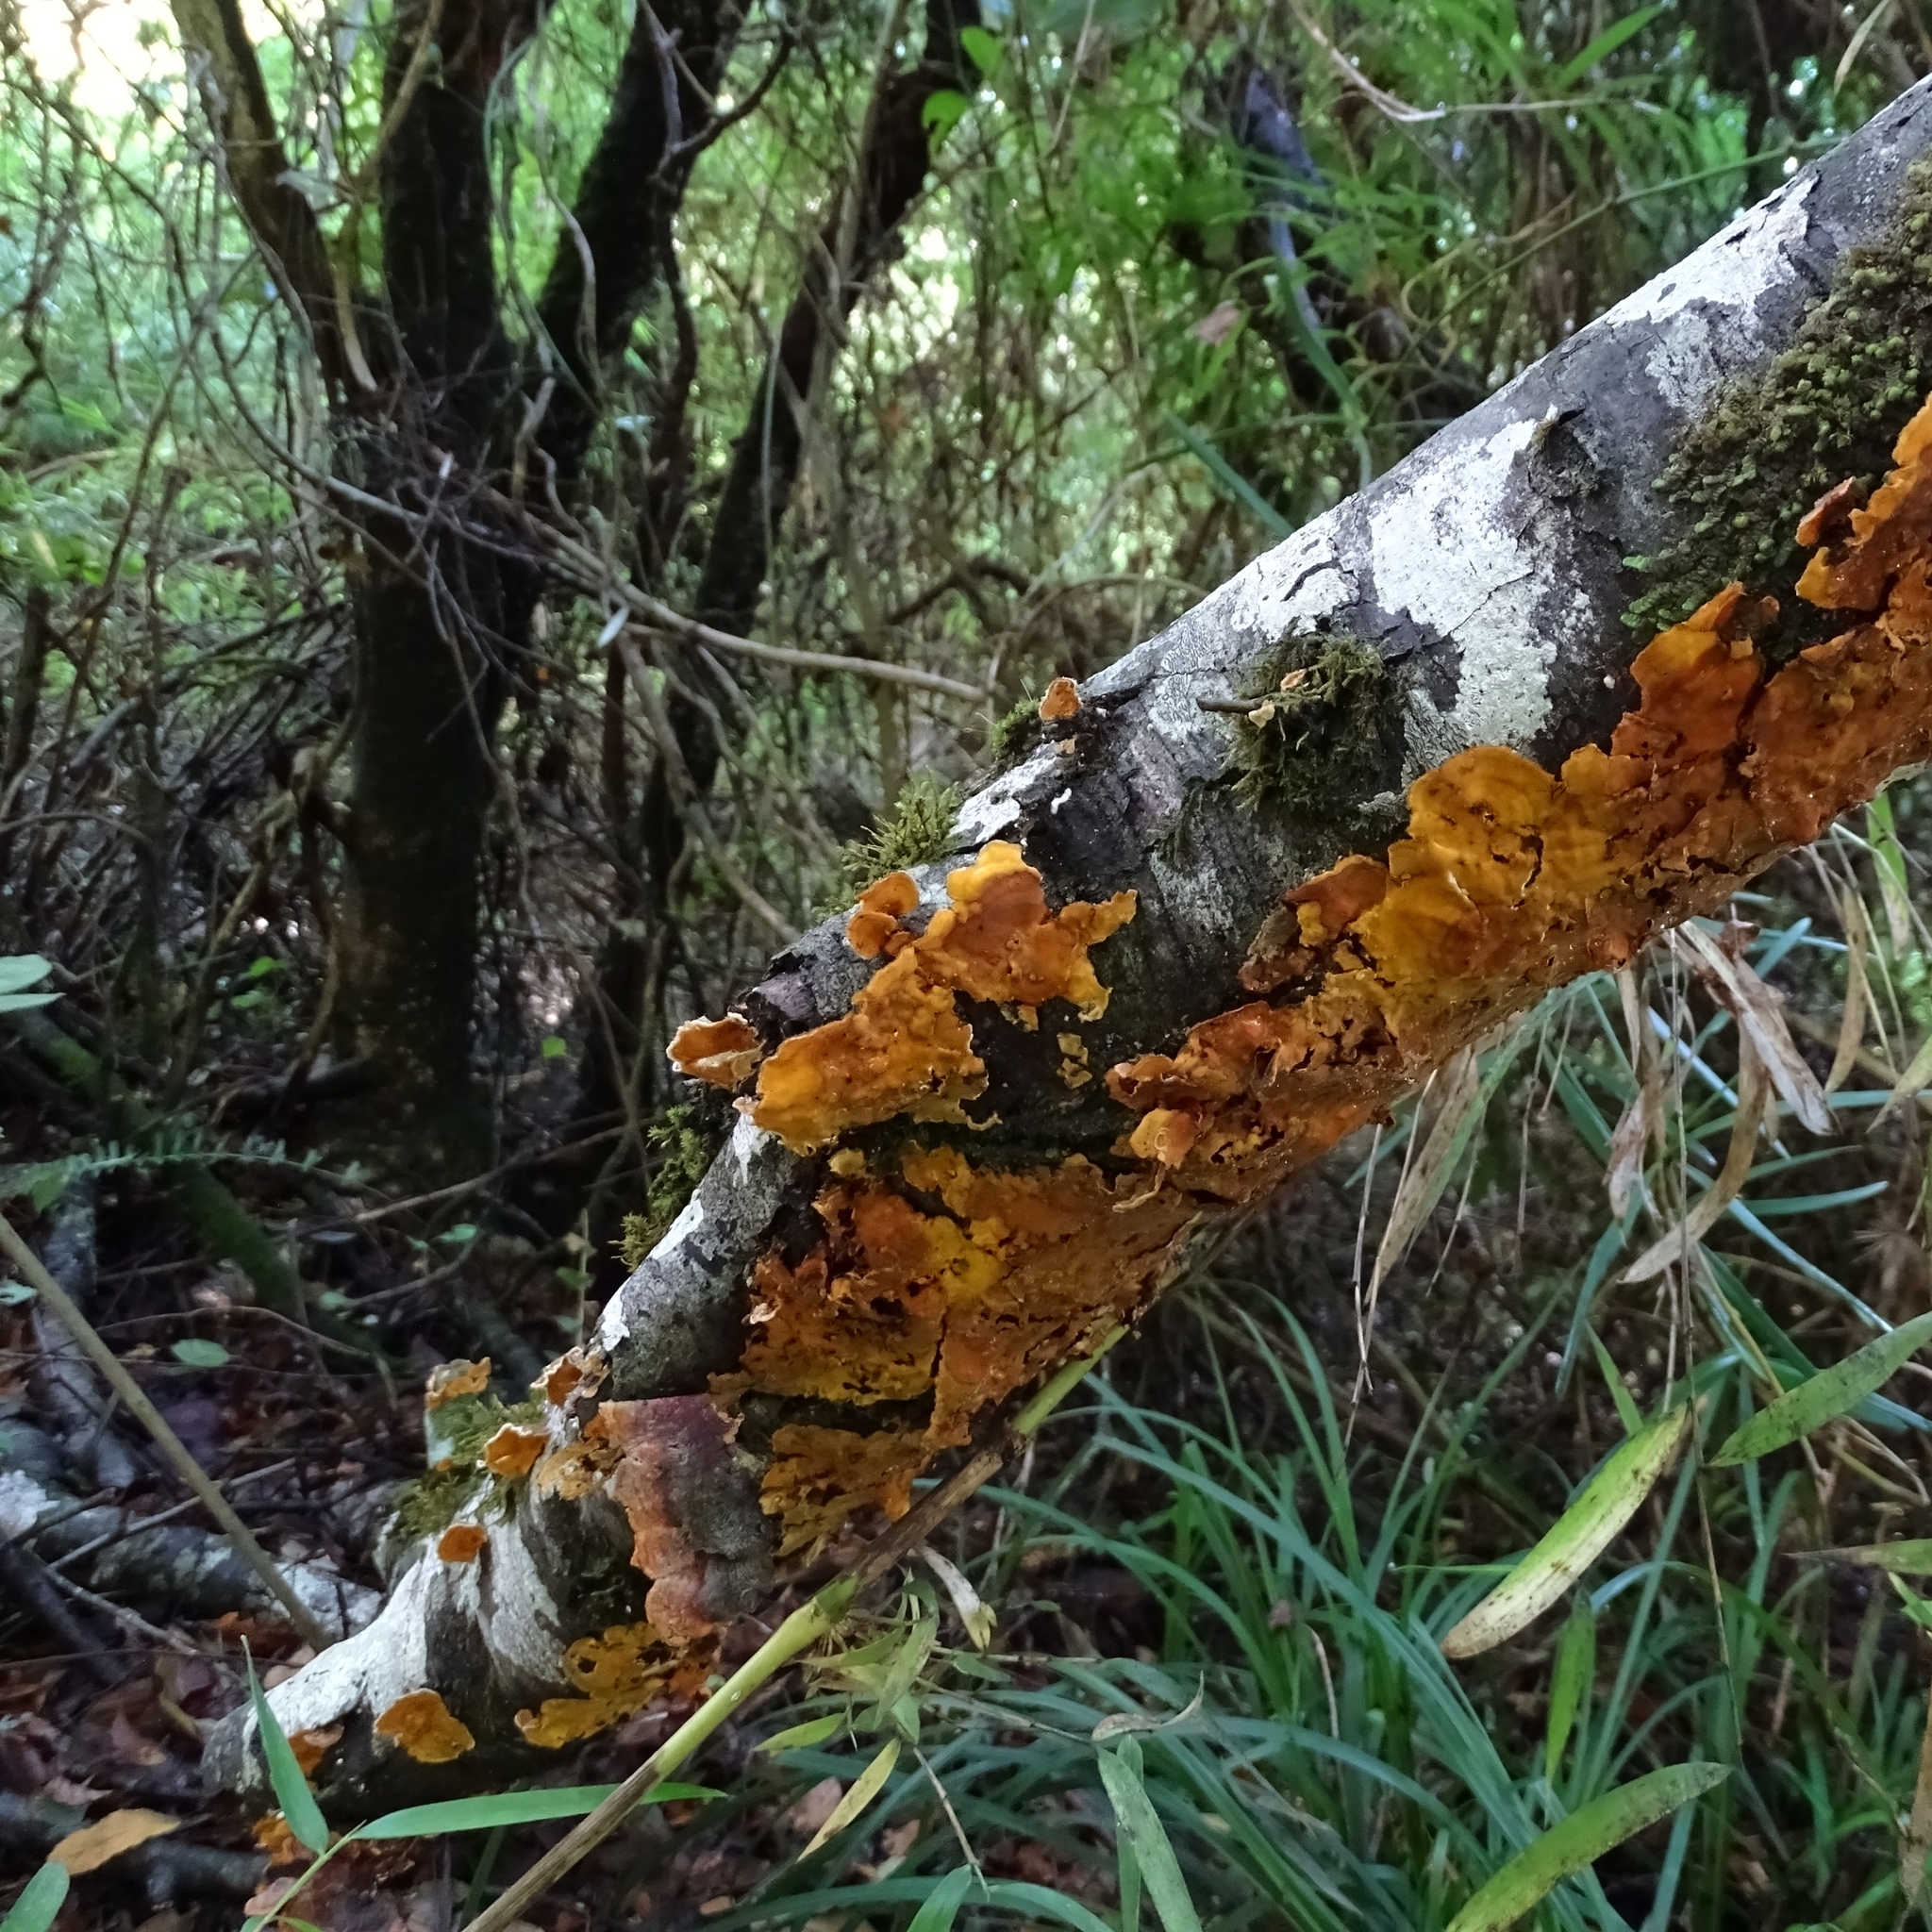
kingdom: Fungi
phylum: Basidiomycota
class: Agaricomycetes
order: Russulales
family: Stereaceae
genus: Stereum
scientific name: Stereum hirsutum
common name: Hairy curtain crust
